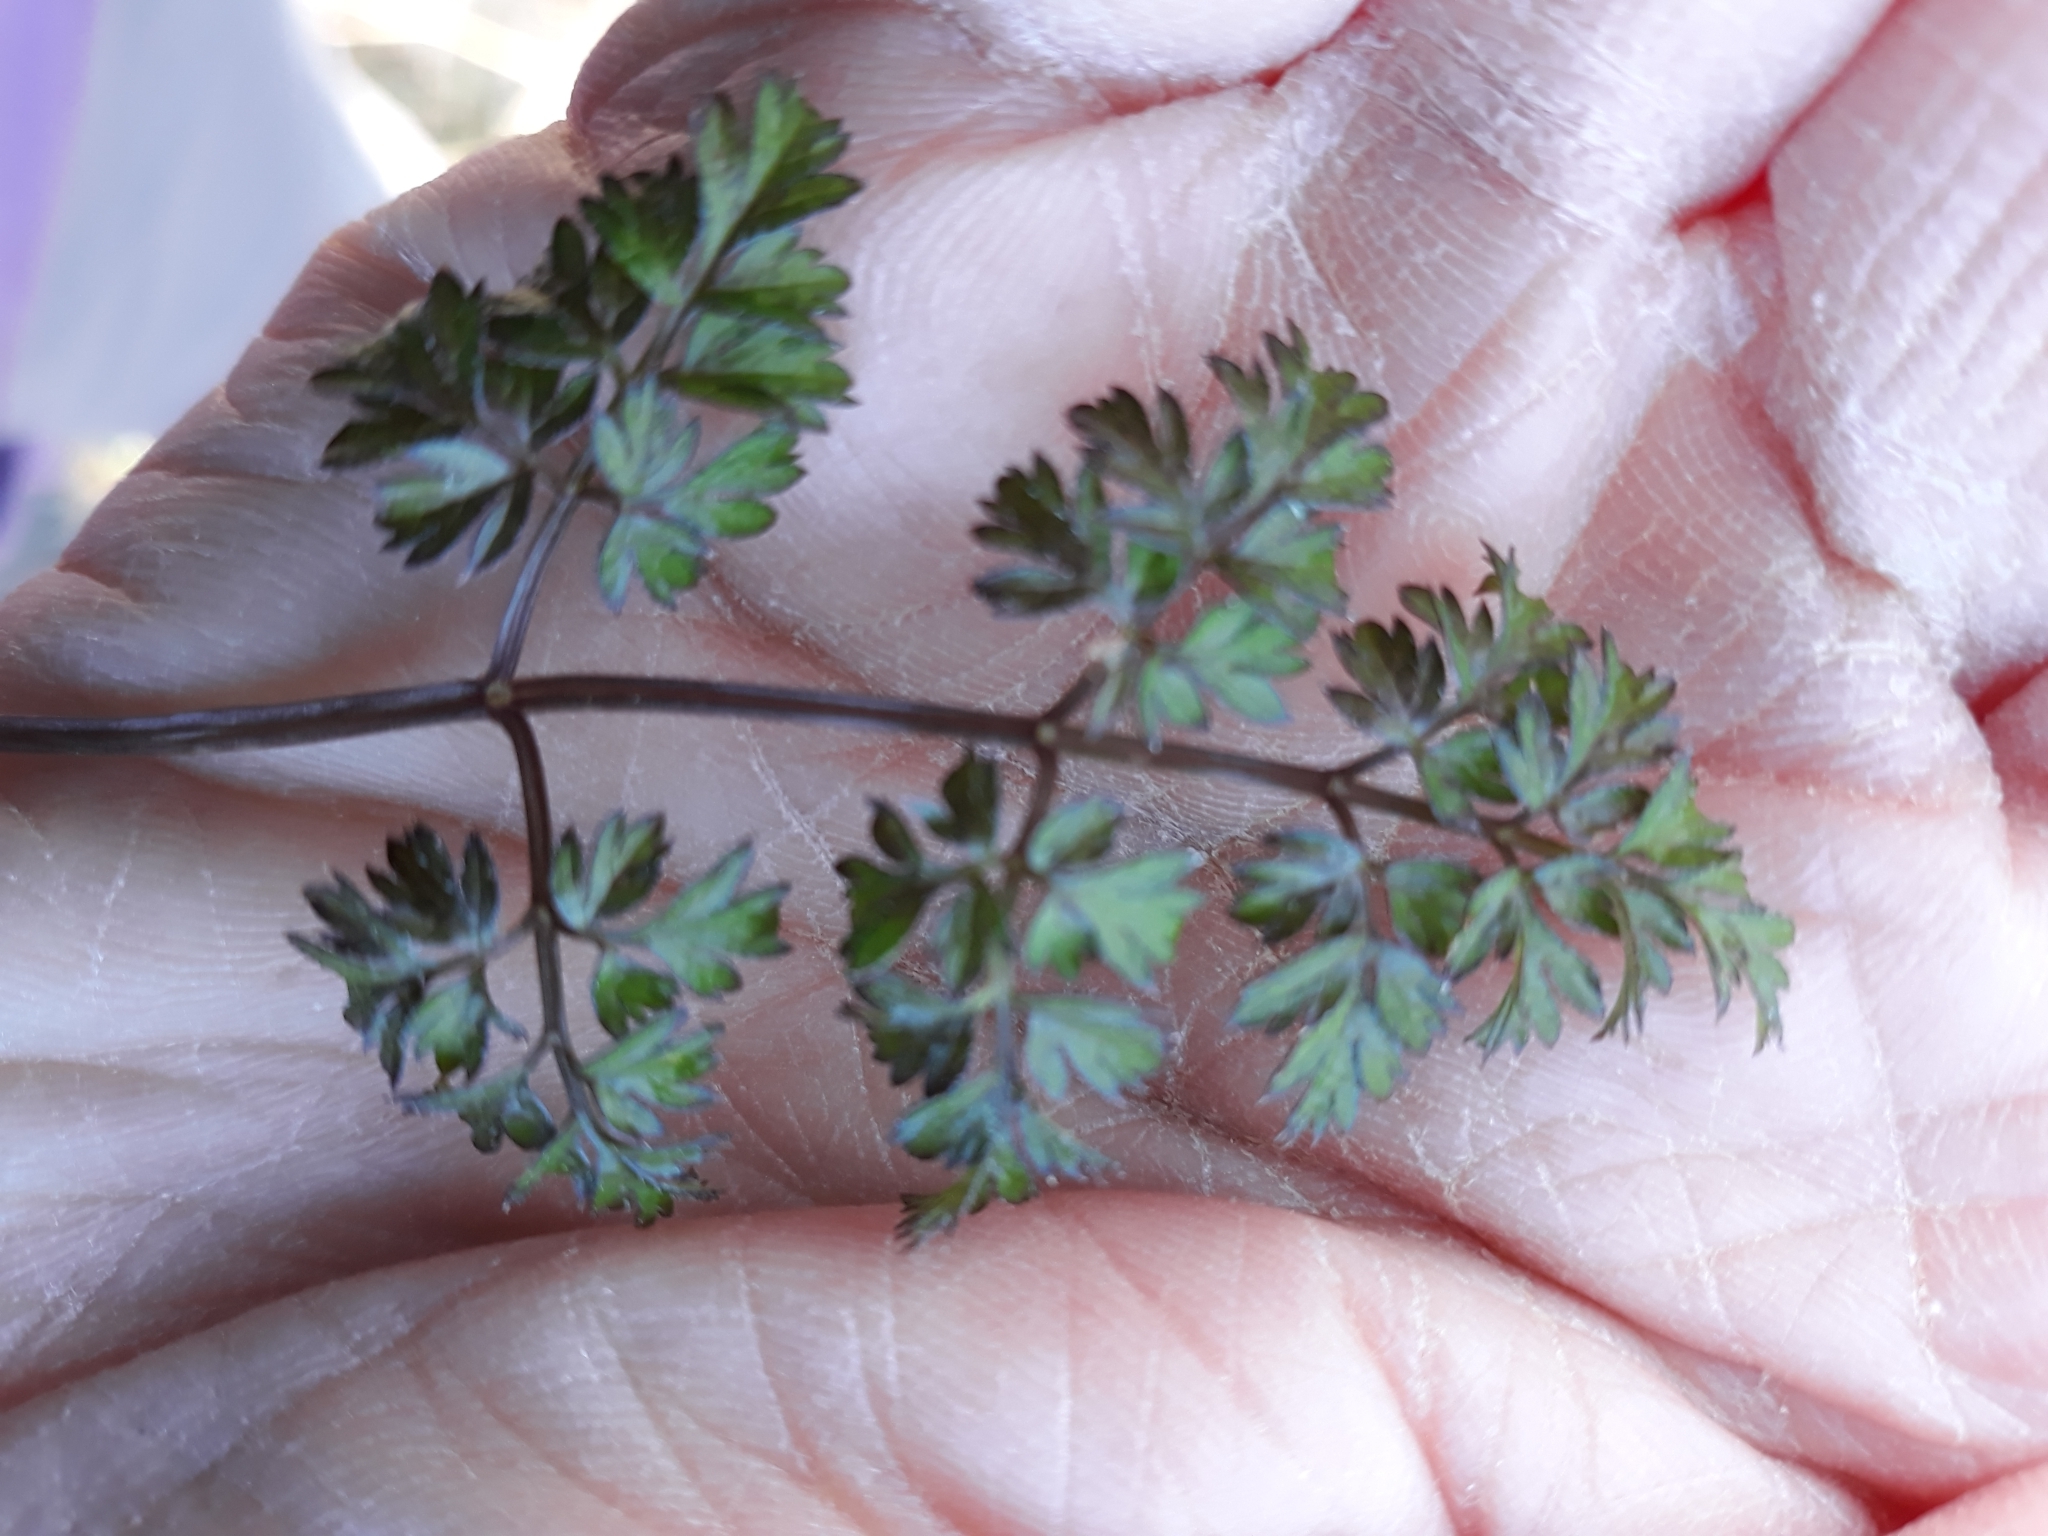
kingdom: Plantae
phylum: Tracheophyta
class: Magnoliopsida
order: Apiales
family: Apiaceae
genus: Anthriscus
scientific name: Anthriscus sylvestris
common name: Cow parsley
